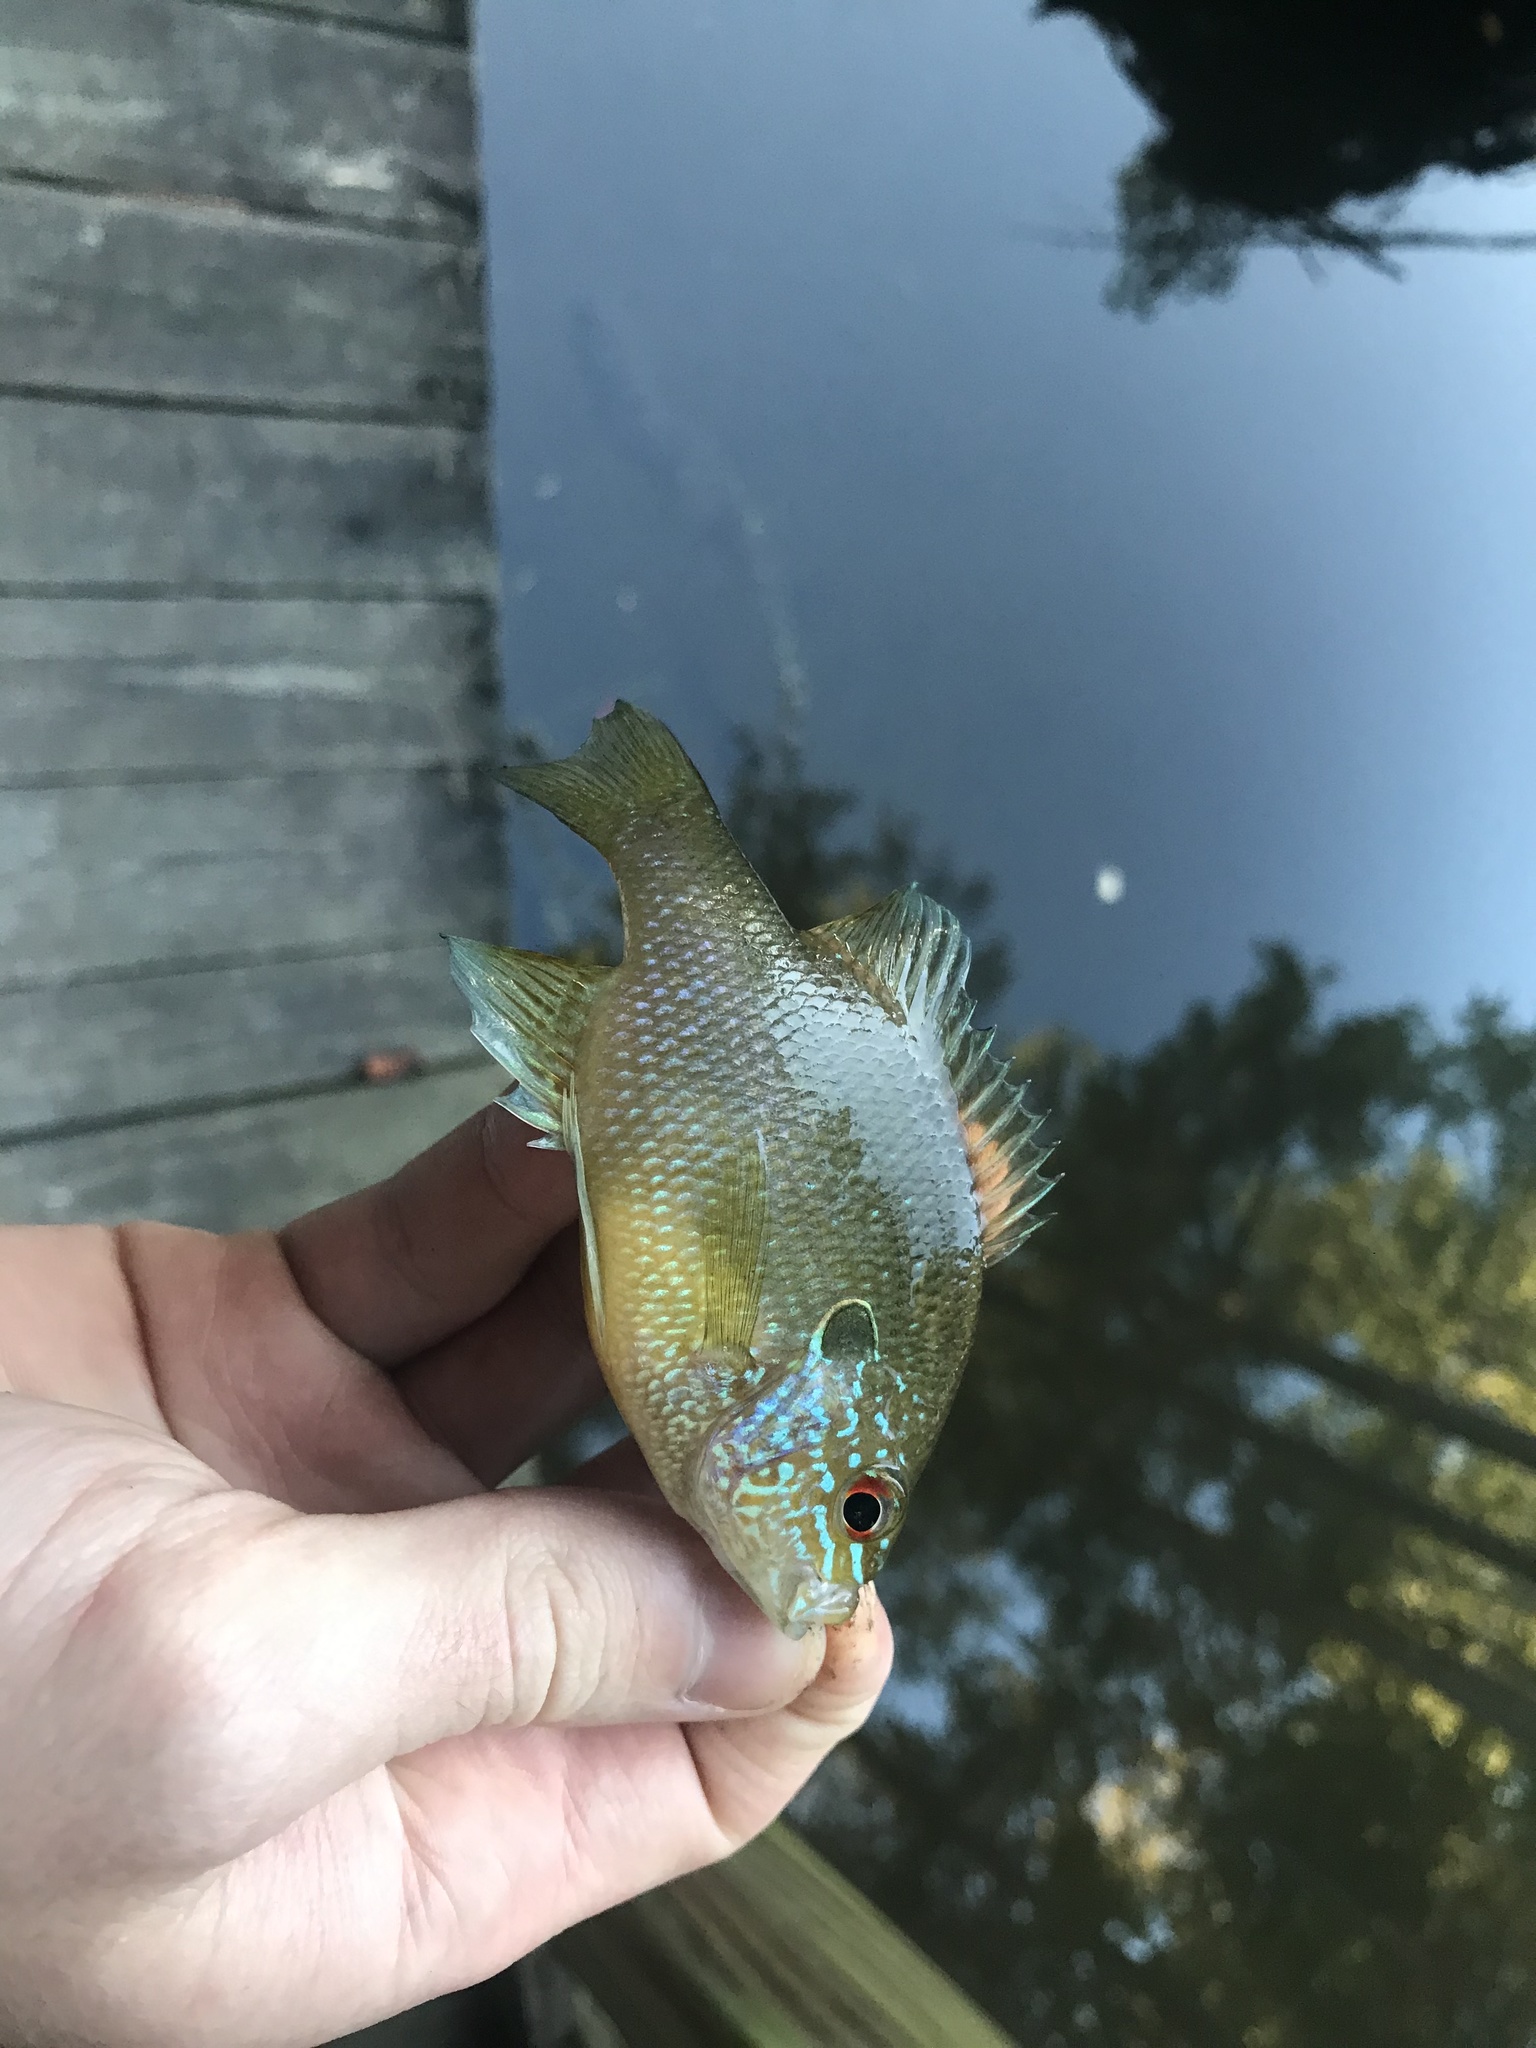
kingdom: Animalia
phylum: Chordata
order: Perciformes
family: Centrarchidae
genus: Lepomis
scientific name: Lepomis marginatus
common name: Dollar sunfish
